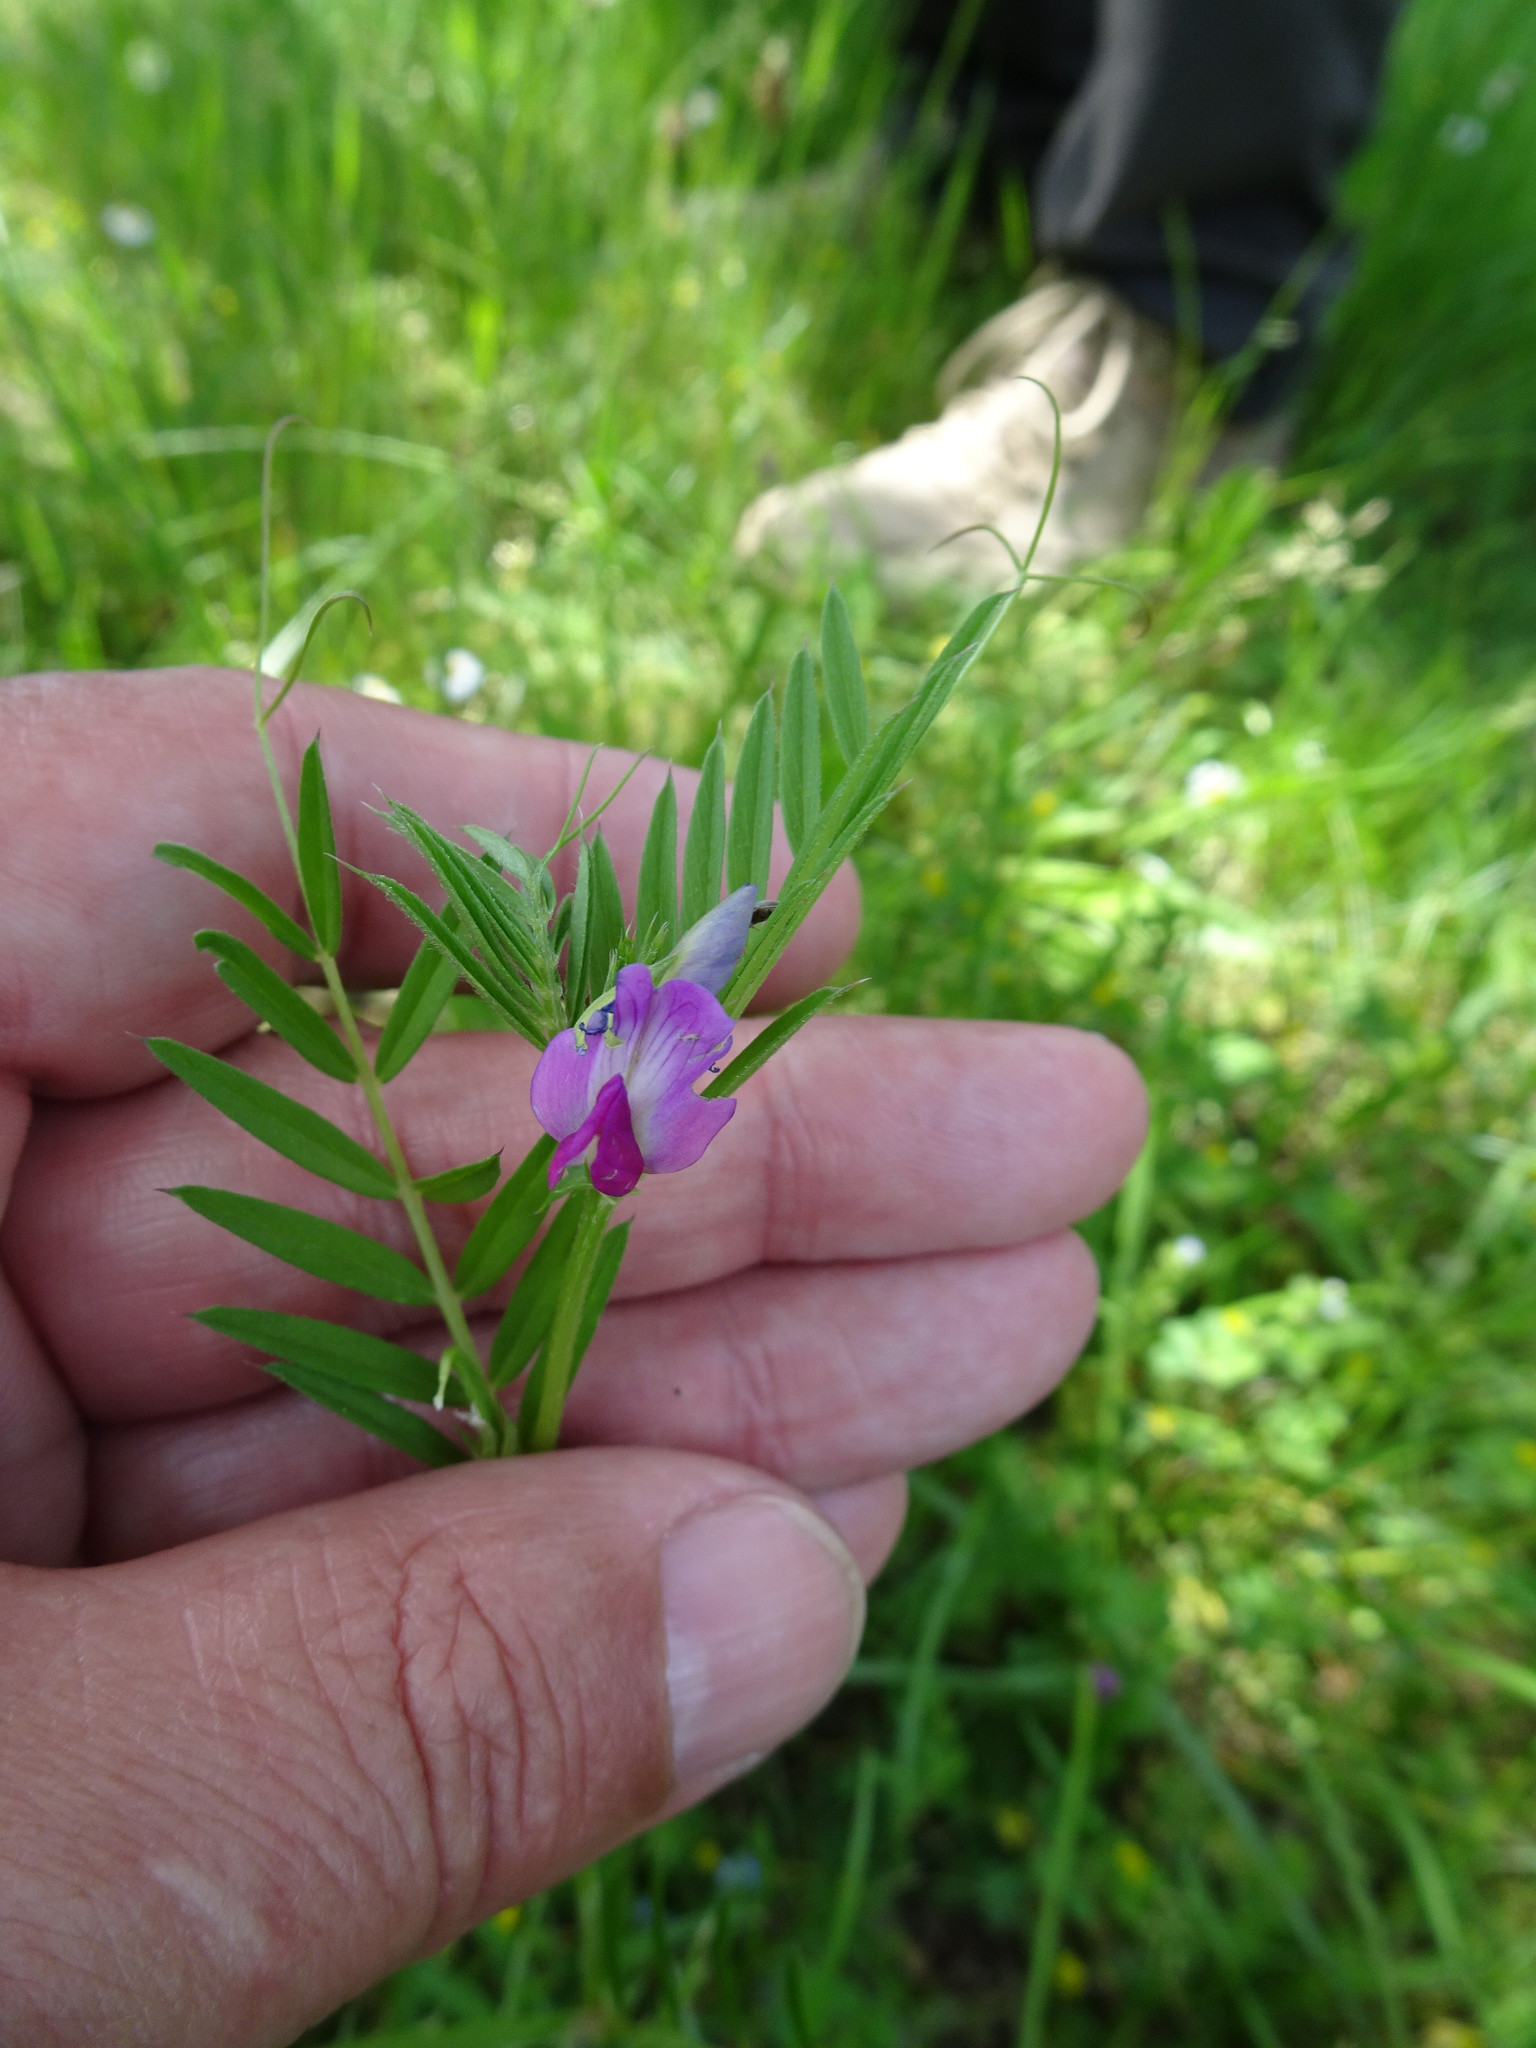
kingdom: Plantae
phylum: Tracheophyta
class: Magnoliopsida
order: Fabales
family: Fabaceae
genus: Vicia
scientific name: Vicia sativa
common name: Garden vetch
